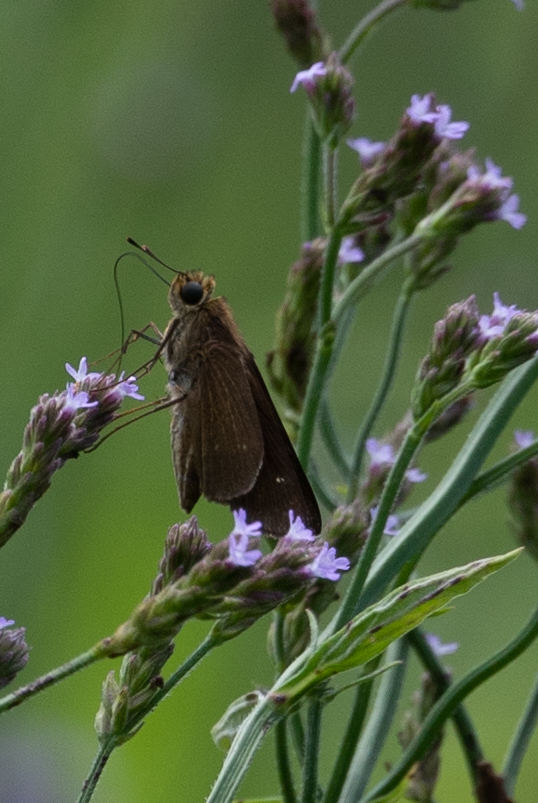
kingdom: Animalia
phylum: Arthropoda
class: Insecta
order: Lepidoptera
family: Hesperiidae
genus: Panoquina
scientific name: Panoquina ocola
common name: Ocola skipper
